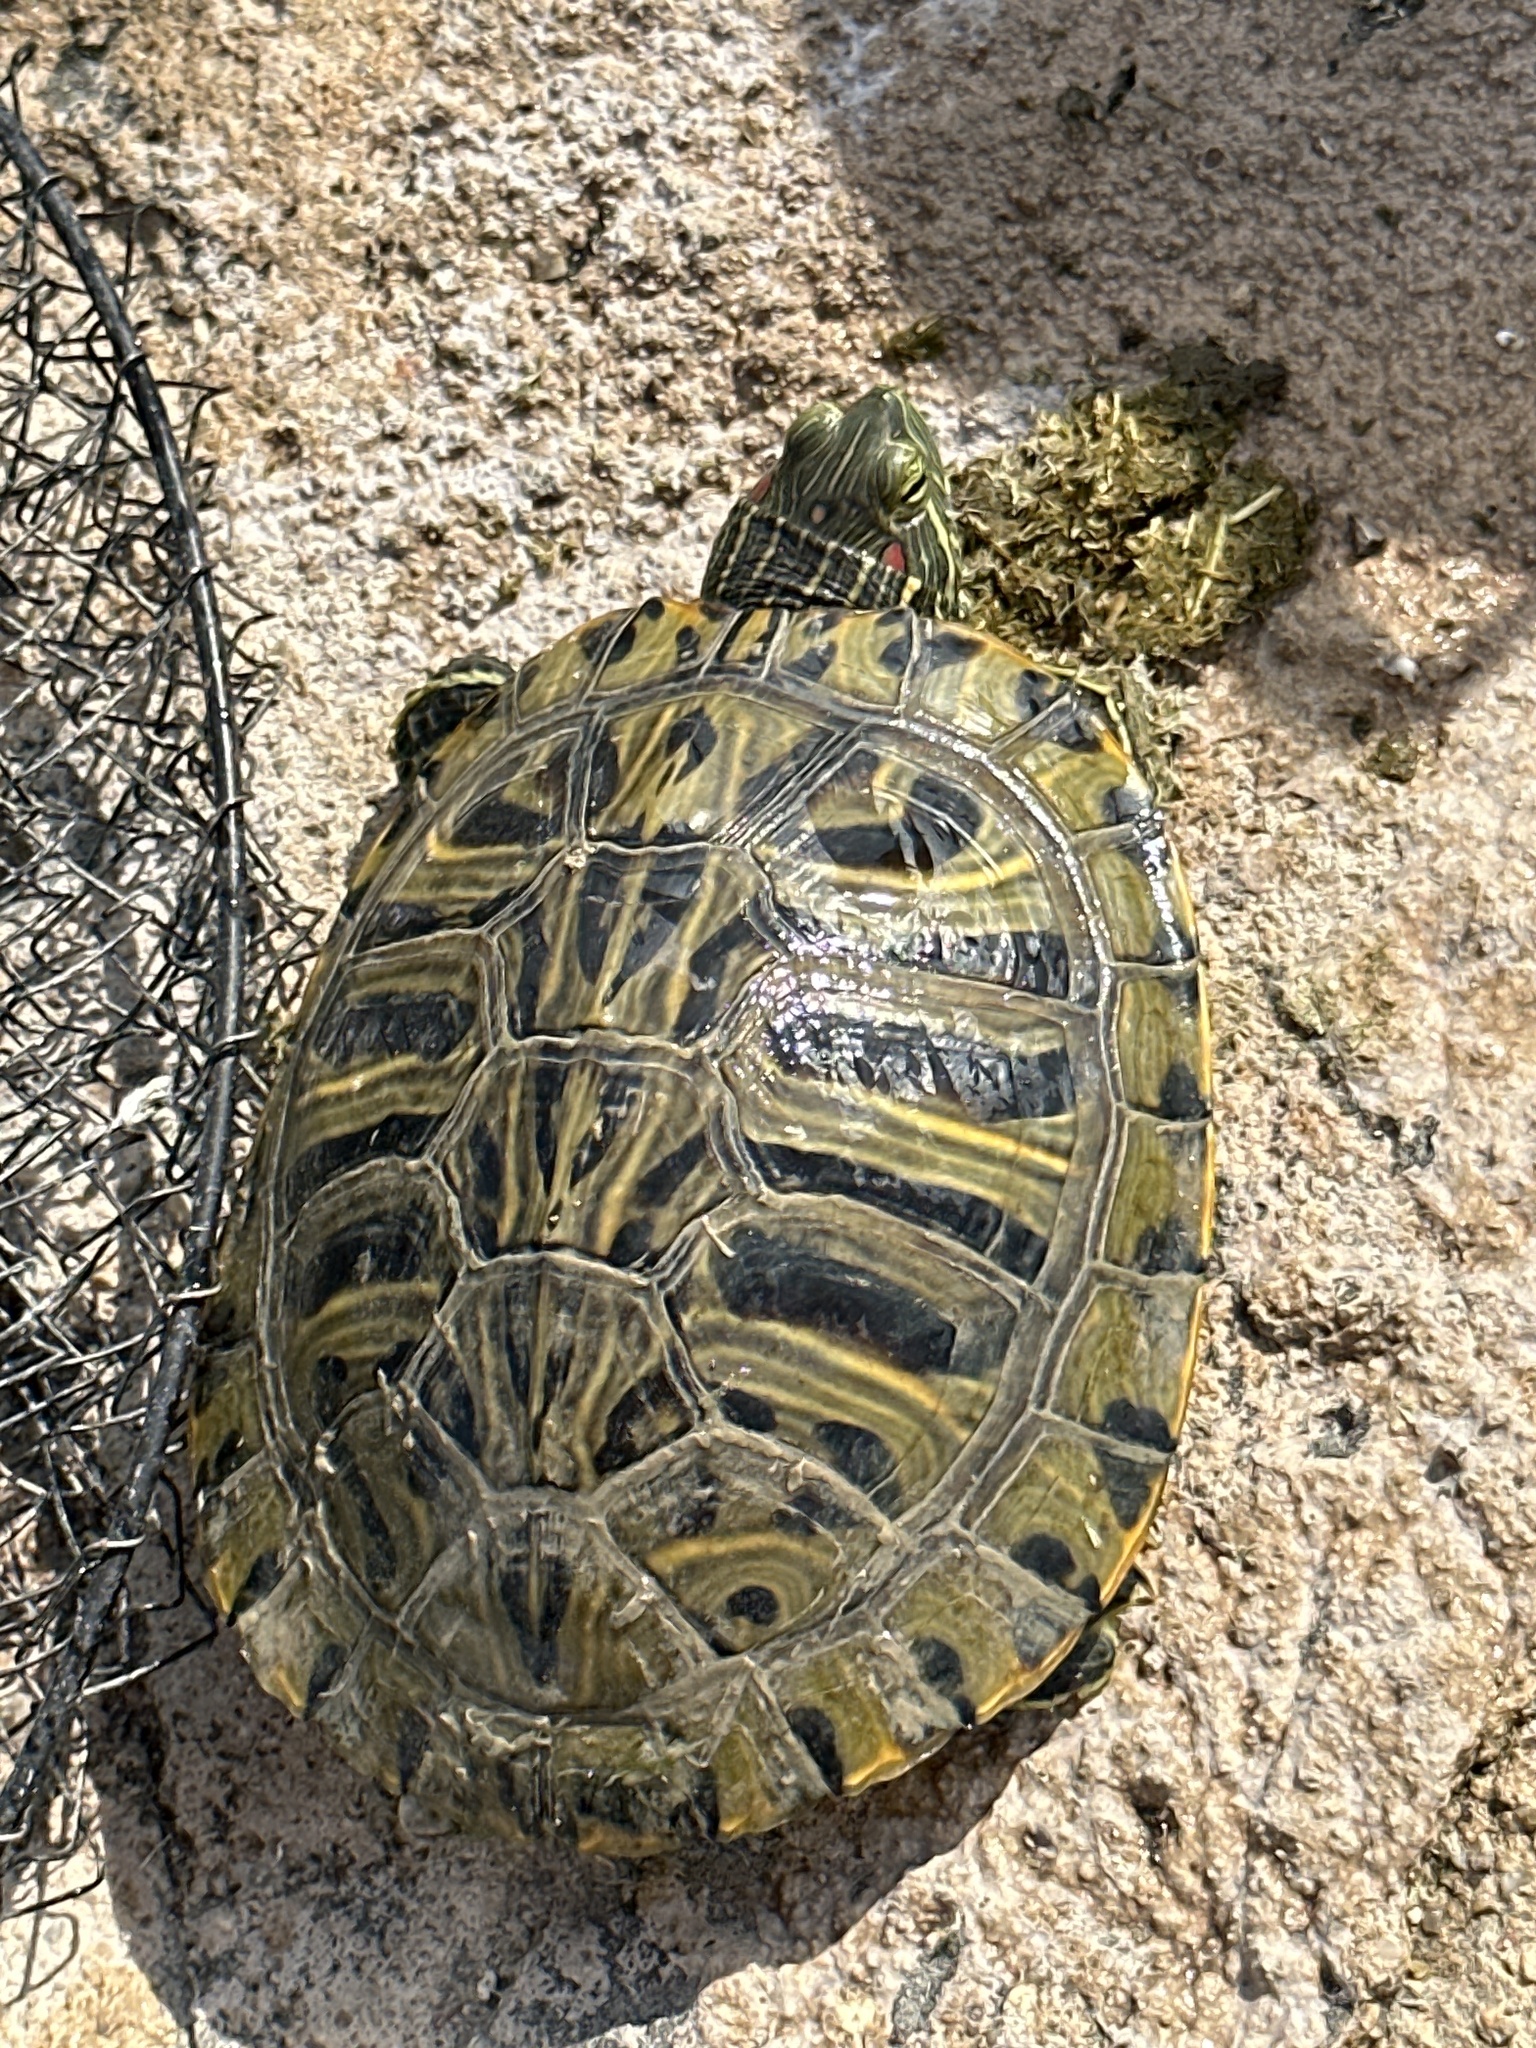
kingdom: Animalia
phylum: Chordata
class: Testudines
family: Emydidae
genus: Trachemys
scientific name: Trachemys scripta
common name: Slider
